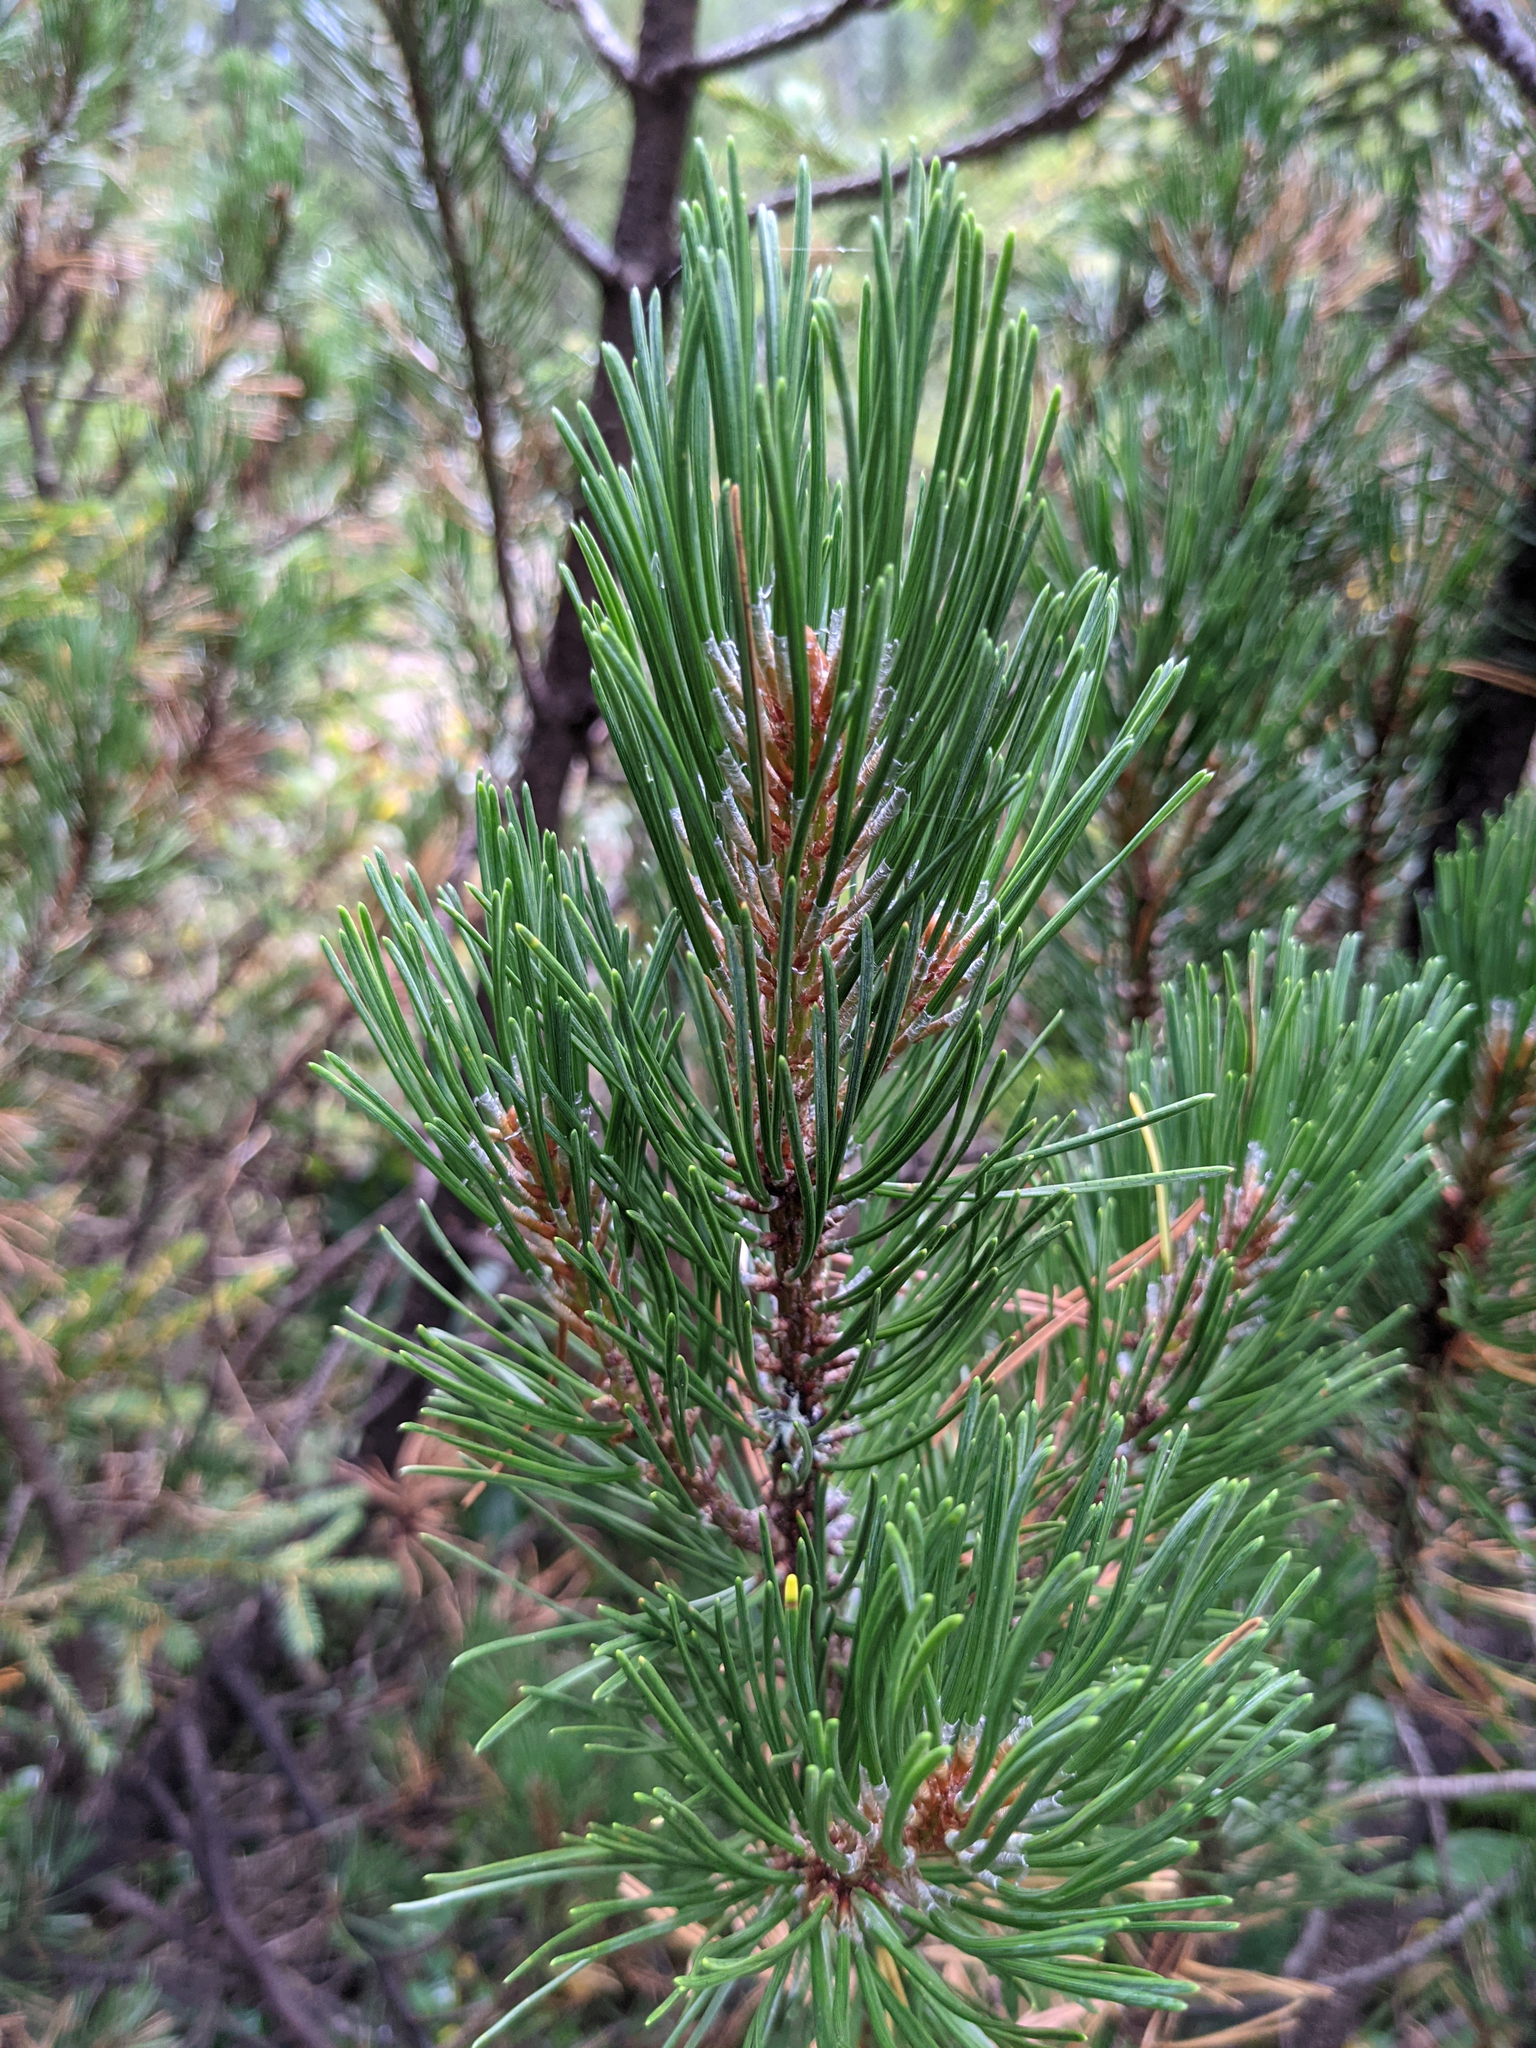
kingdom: Plantae
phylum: Tracheophyta
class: Pinopsida
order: Pinales
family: Pinaceae
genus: Pinus
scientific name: Pinus mugo
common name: Mugo pine
